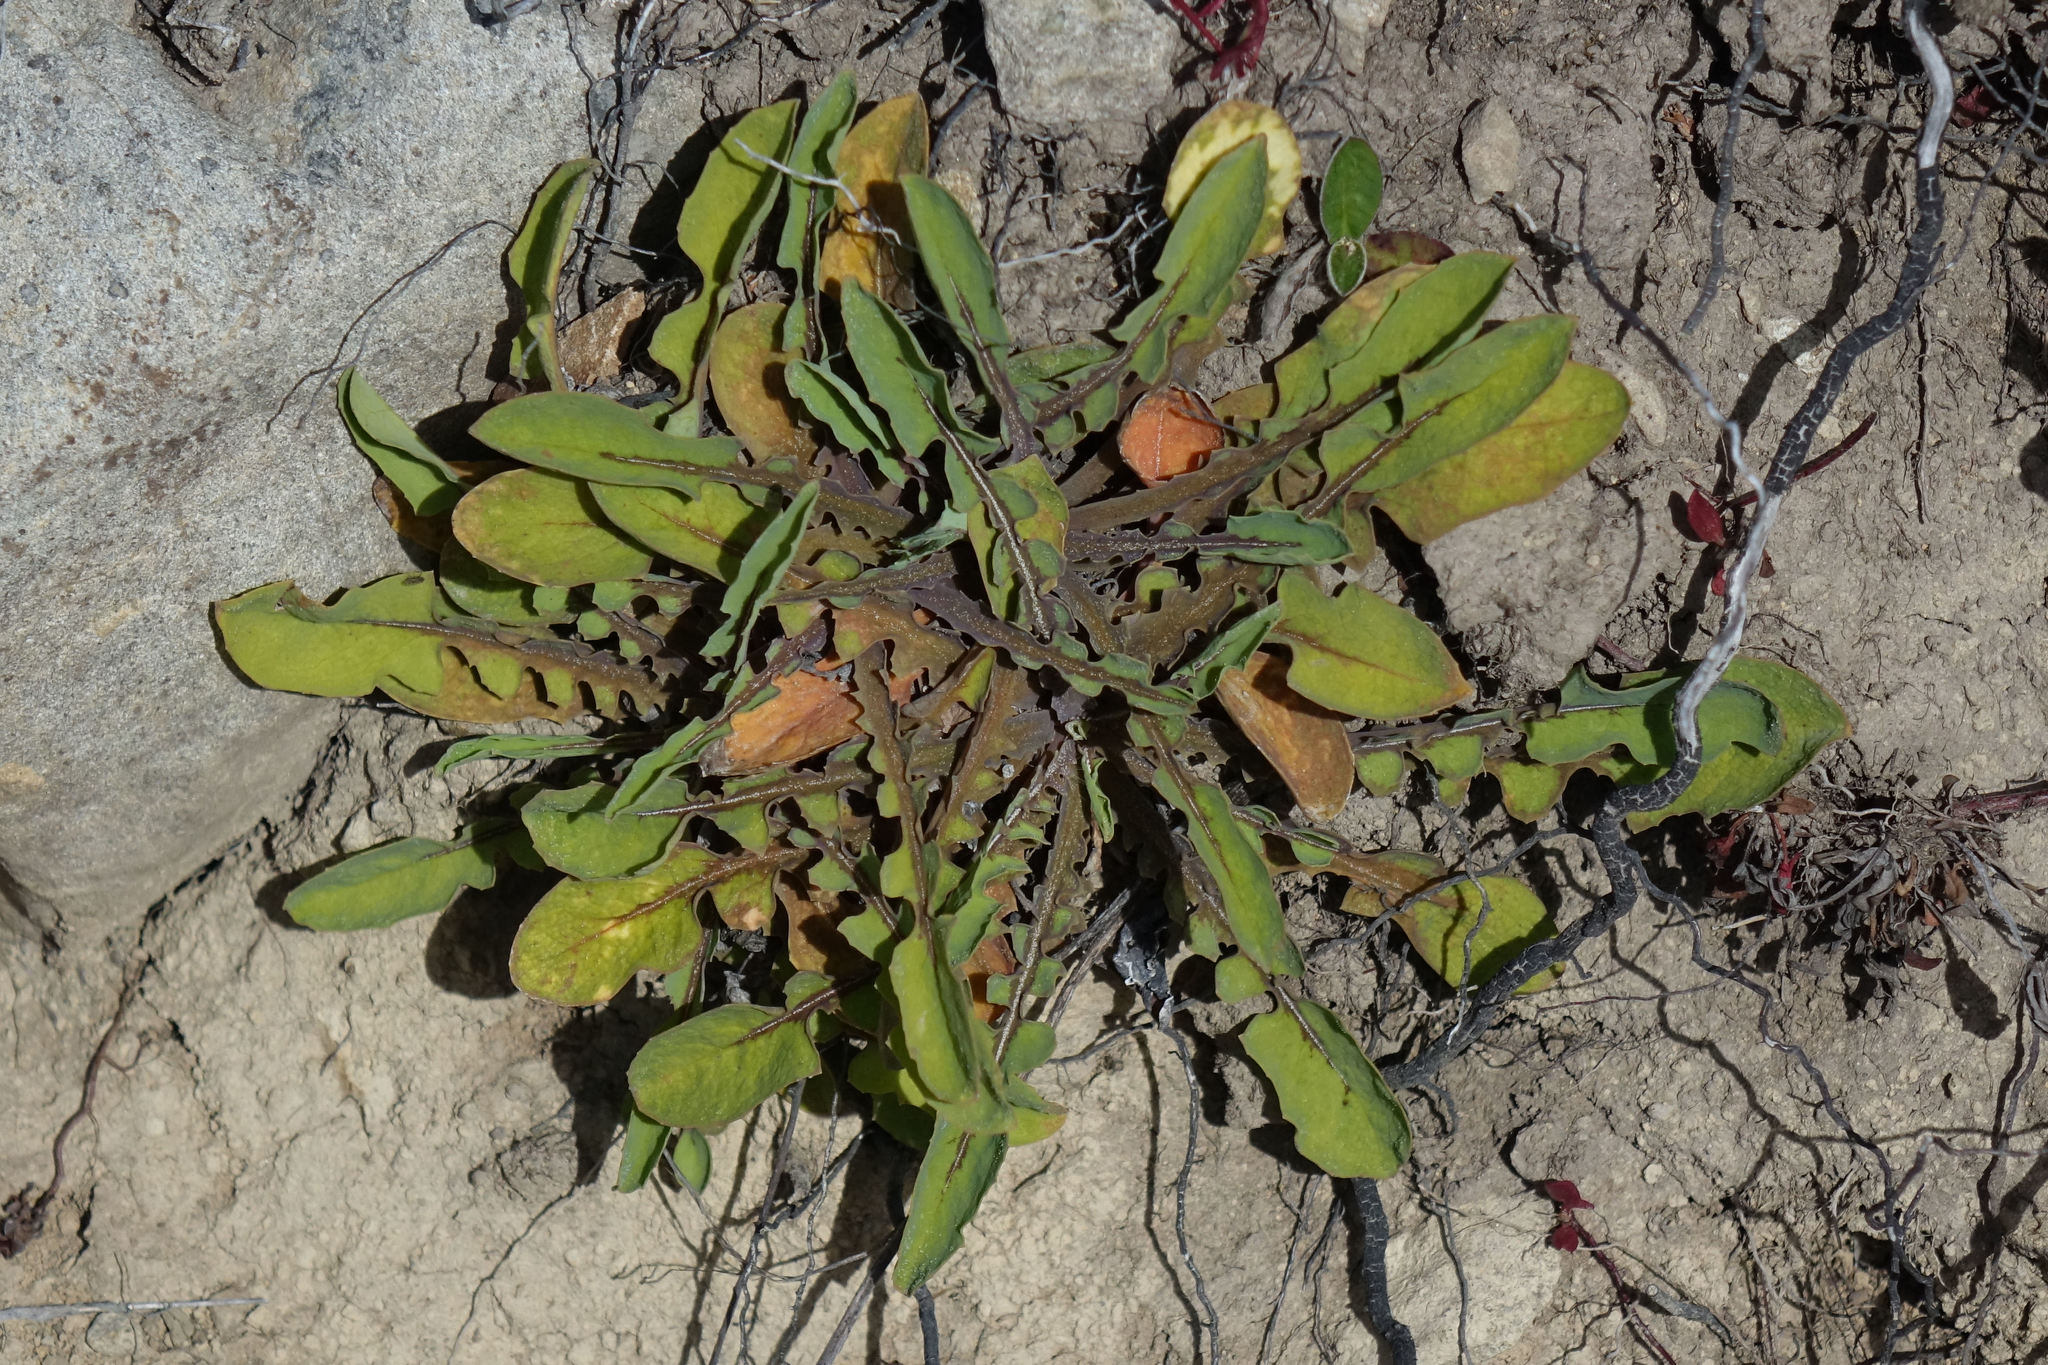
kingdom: Plantae
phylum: Tracheophyta
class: Magnoliopsida
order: Asterales
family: Asteraceae
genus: Sonchus
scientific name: Sonchus novae-zelandiae
